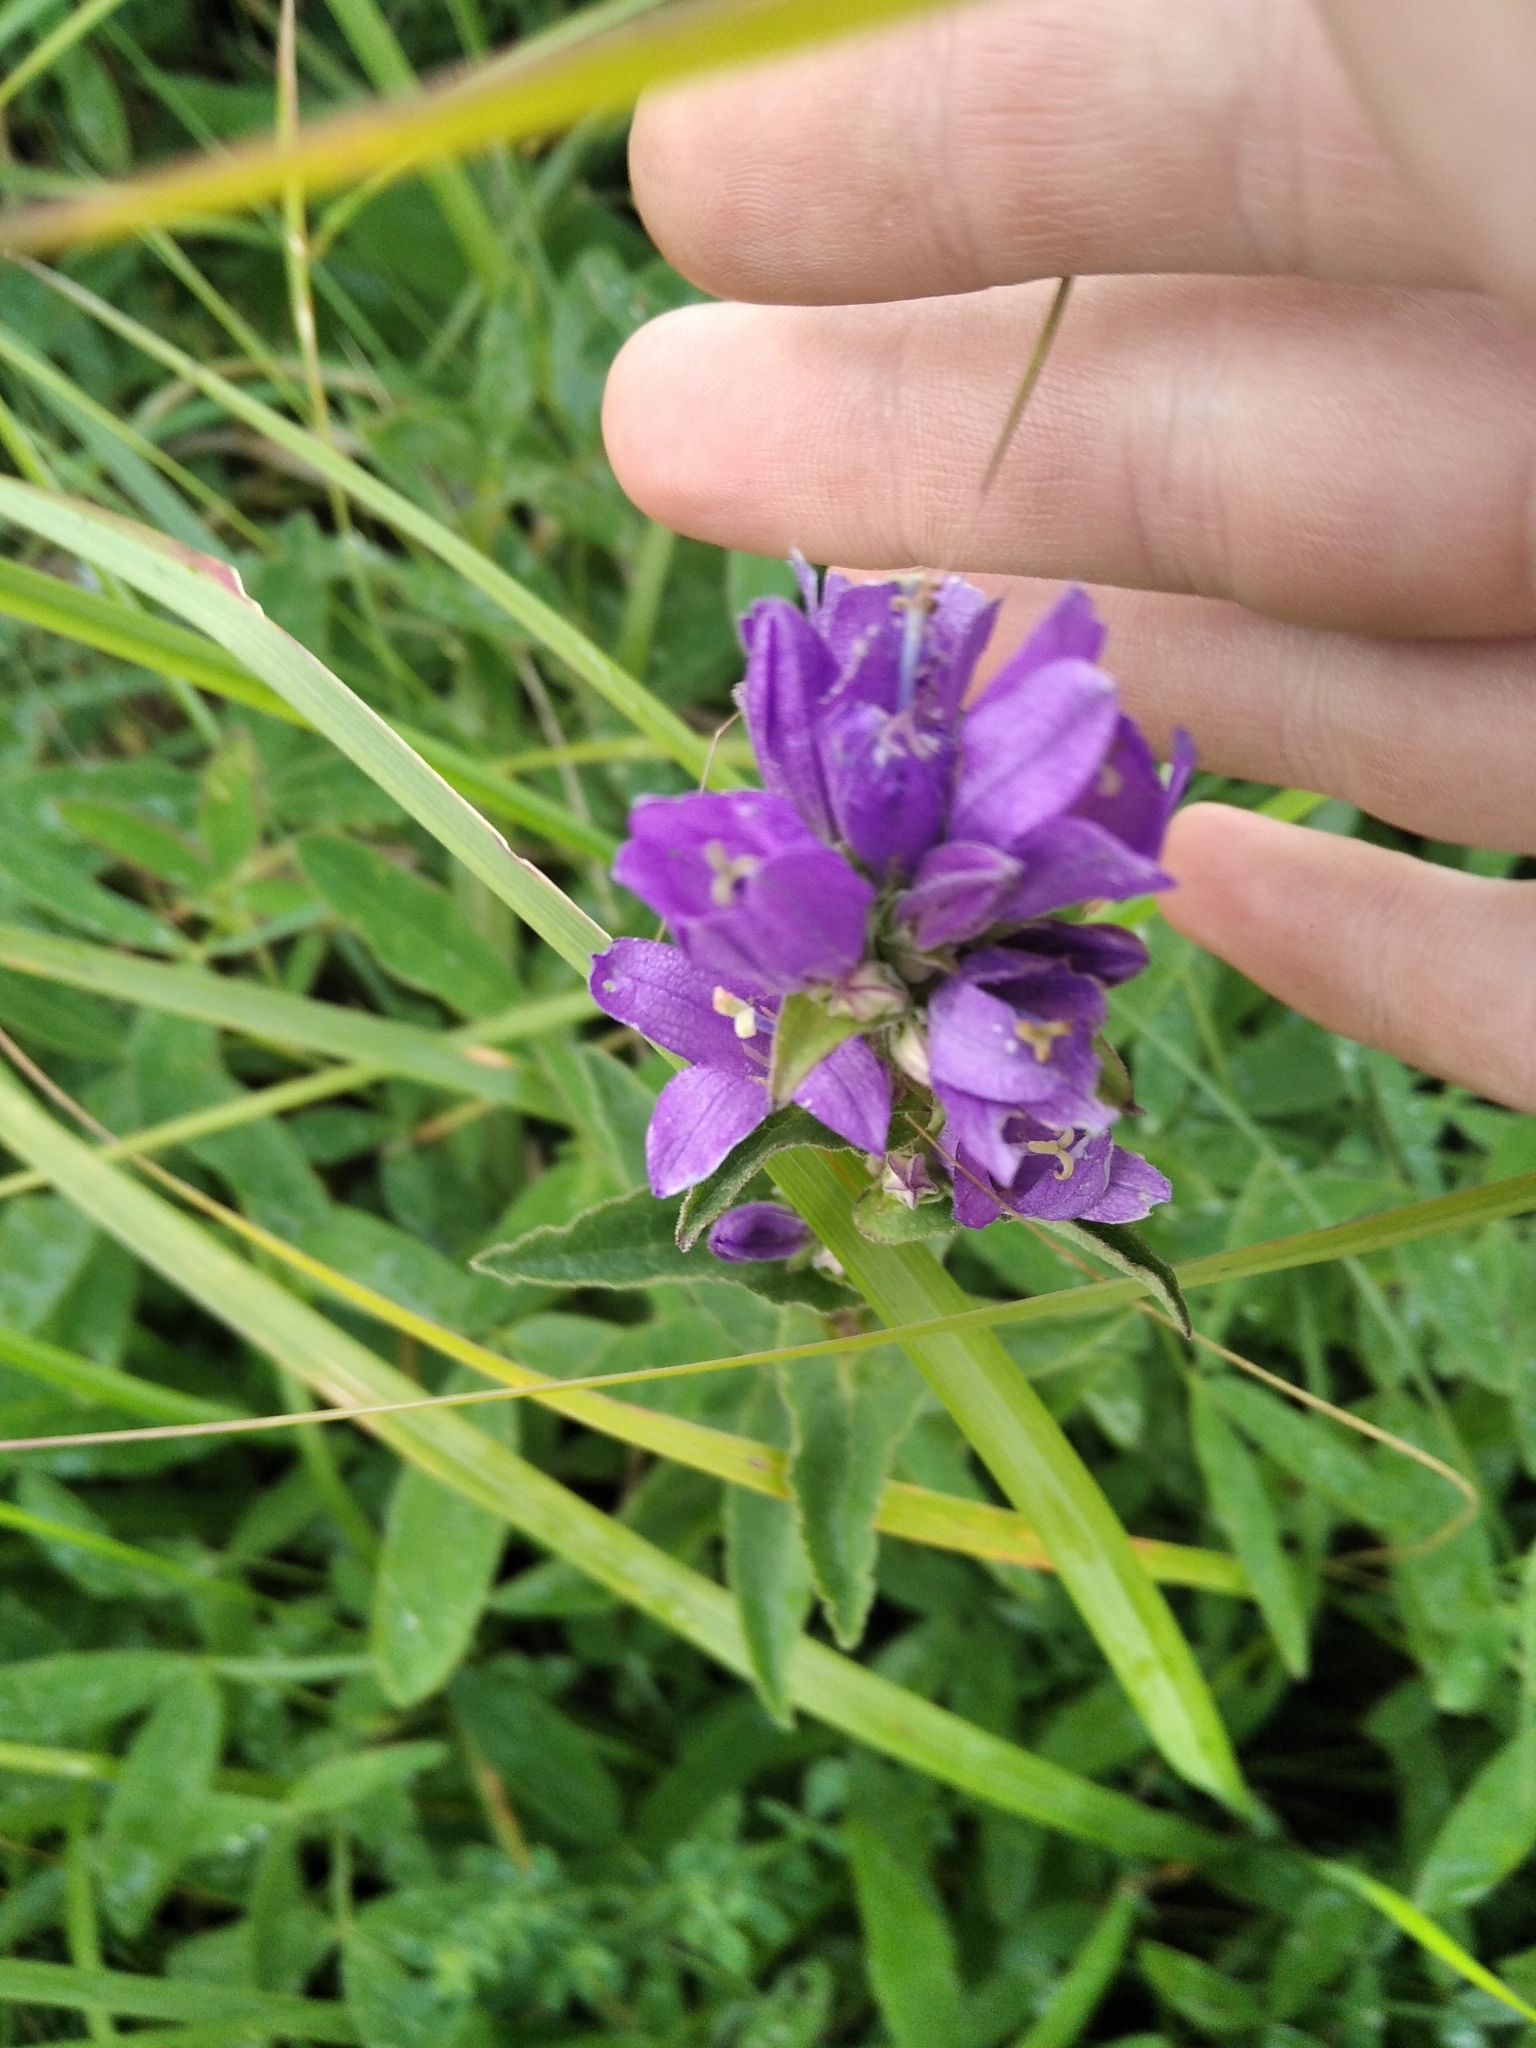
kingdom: Plantae
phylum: Tracheophyta
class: Magnoliopsida
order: Asterales
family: Campanulaceae
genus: Campanula
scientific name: Campanula glomerata
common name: Clustered bellflower
